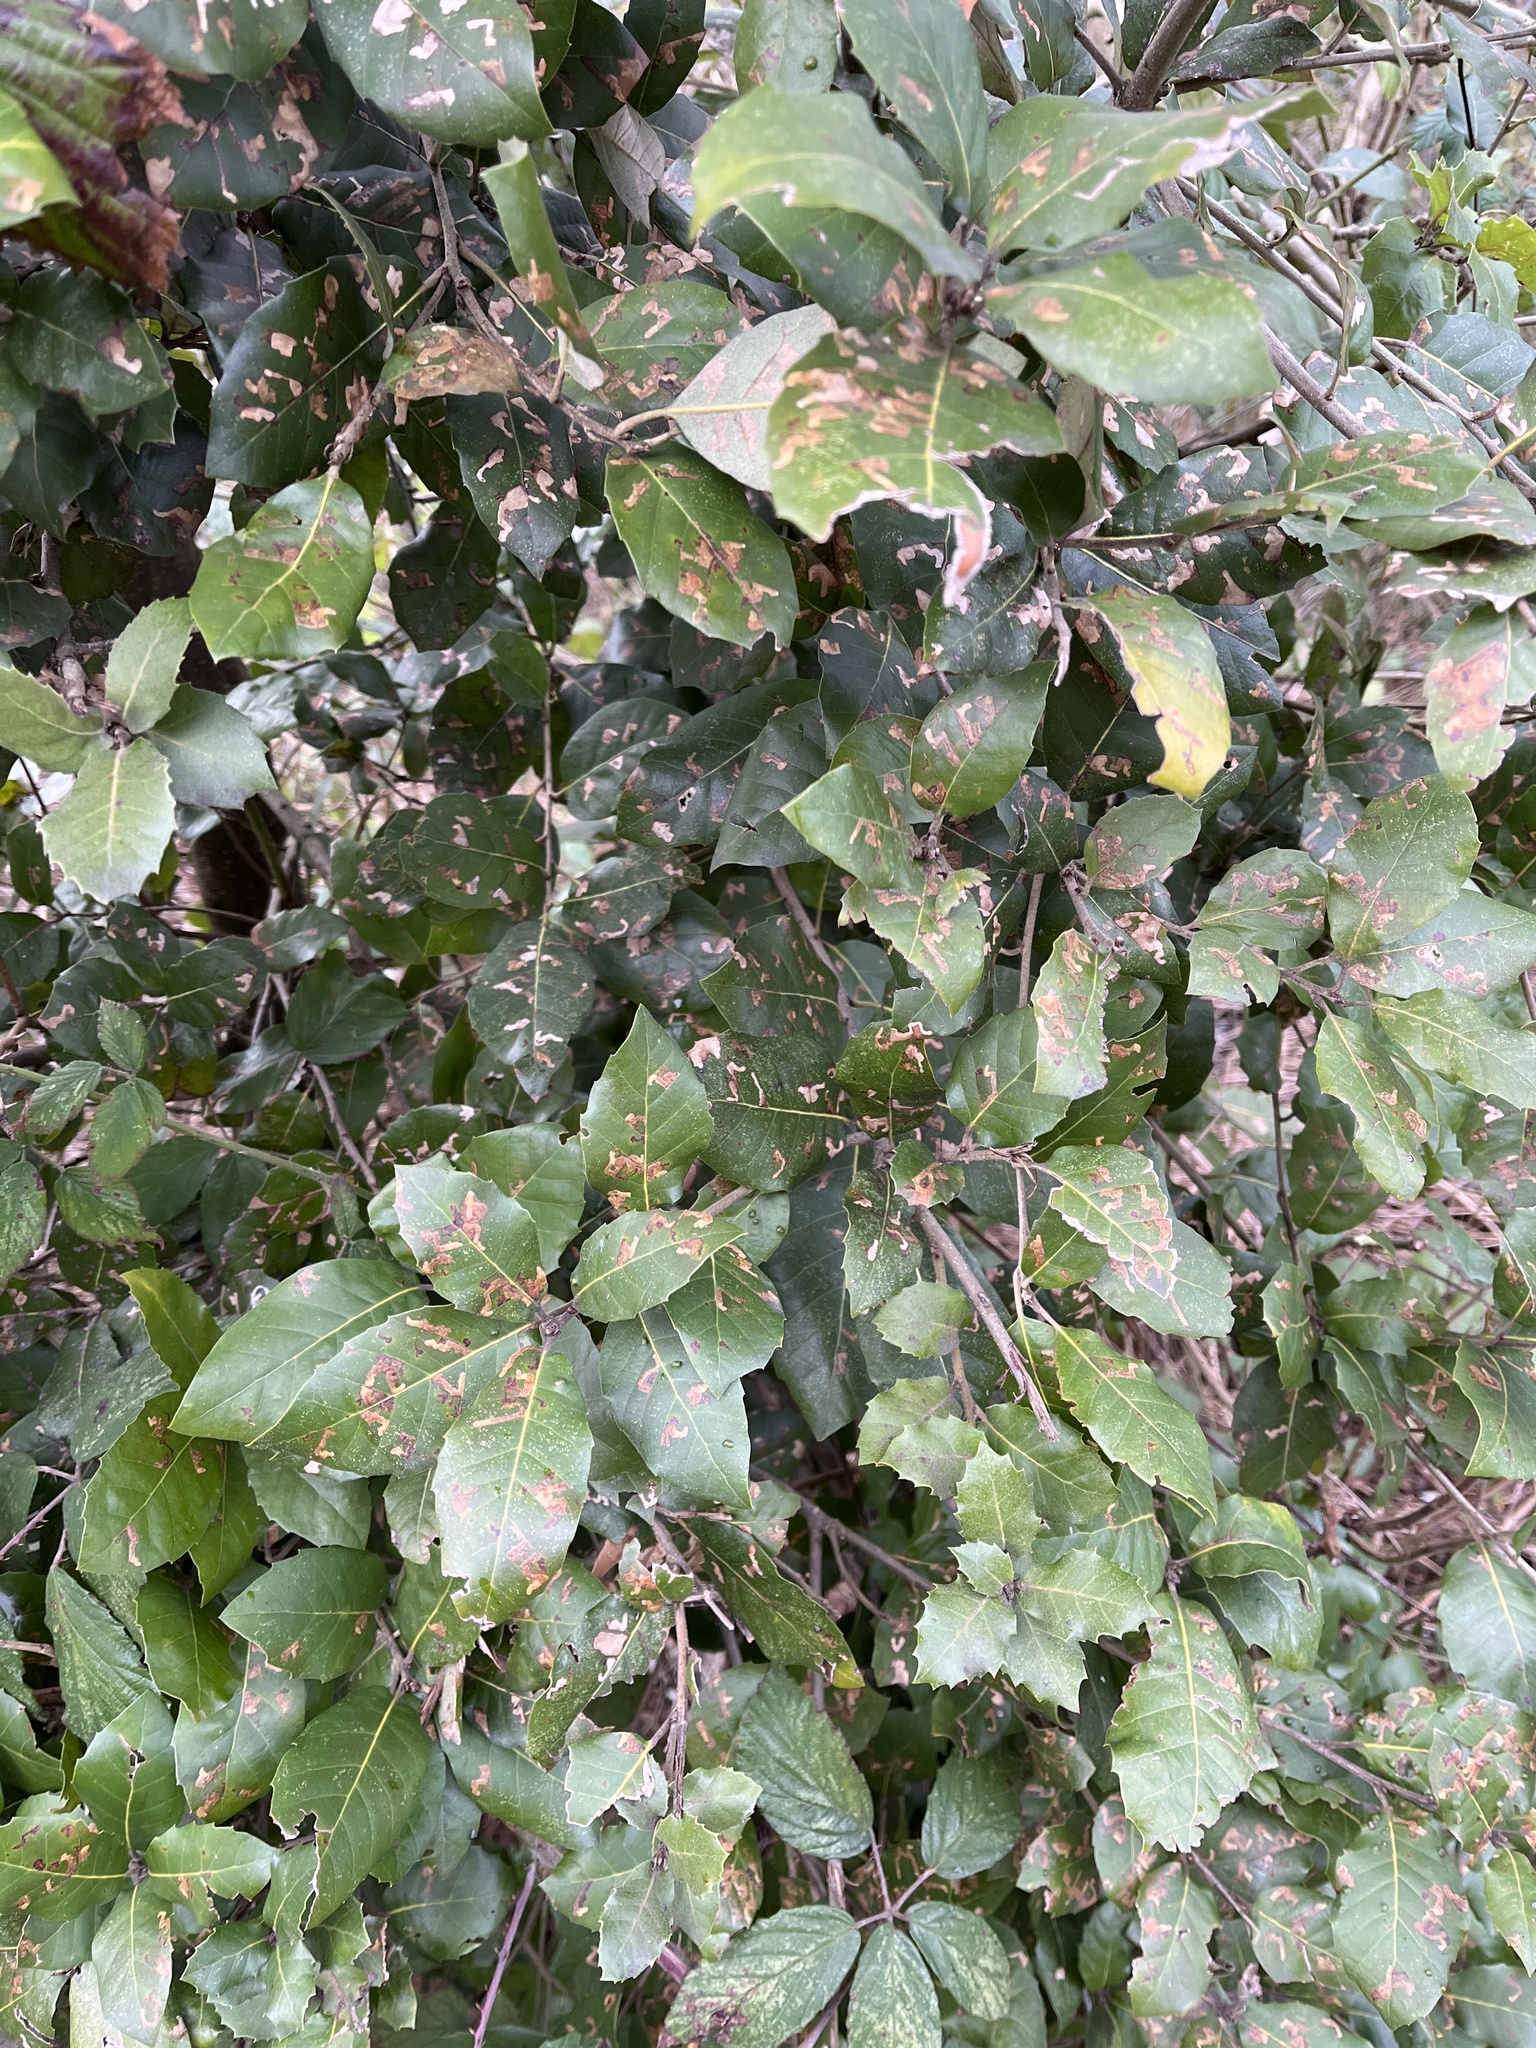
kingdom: Plantae
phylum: Tracheophyta
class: Magnoliopsida
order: Fagales
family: Fagaceae
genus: Quercus
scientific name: Quercus ilex
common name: Evergreen oak
